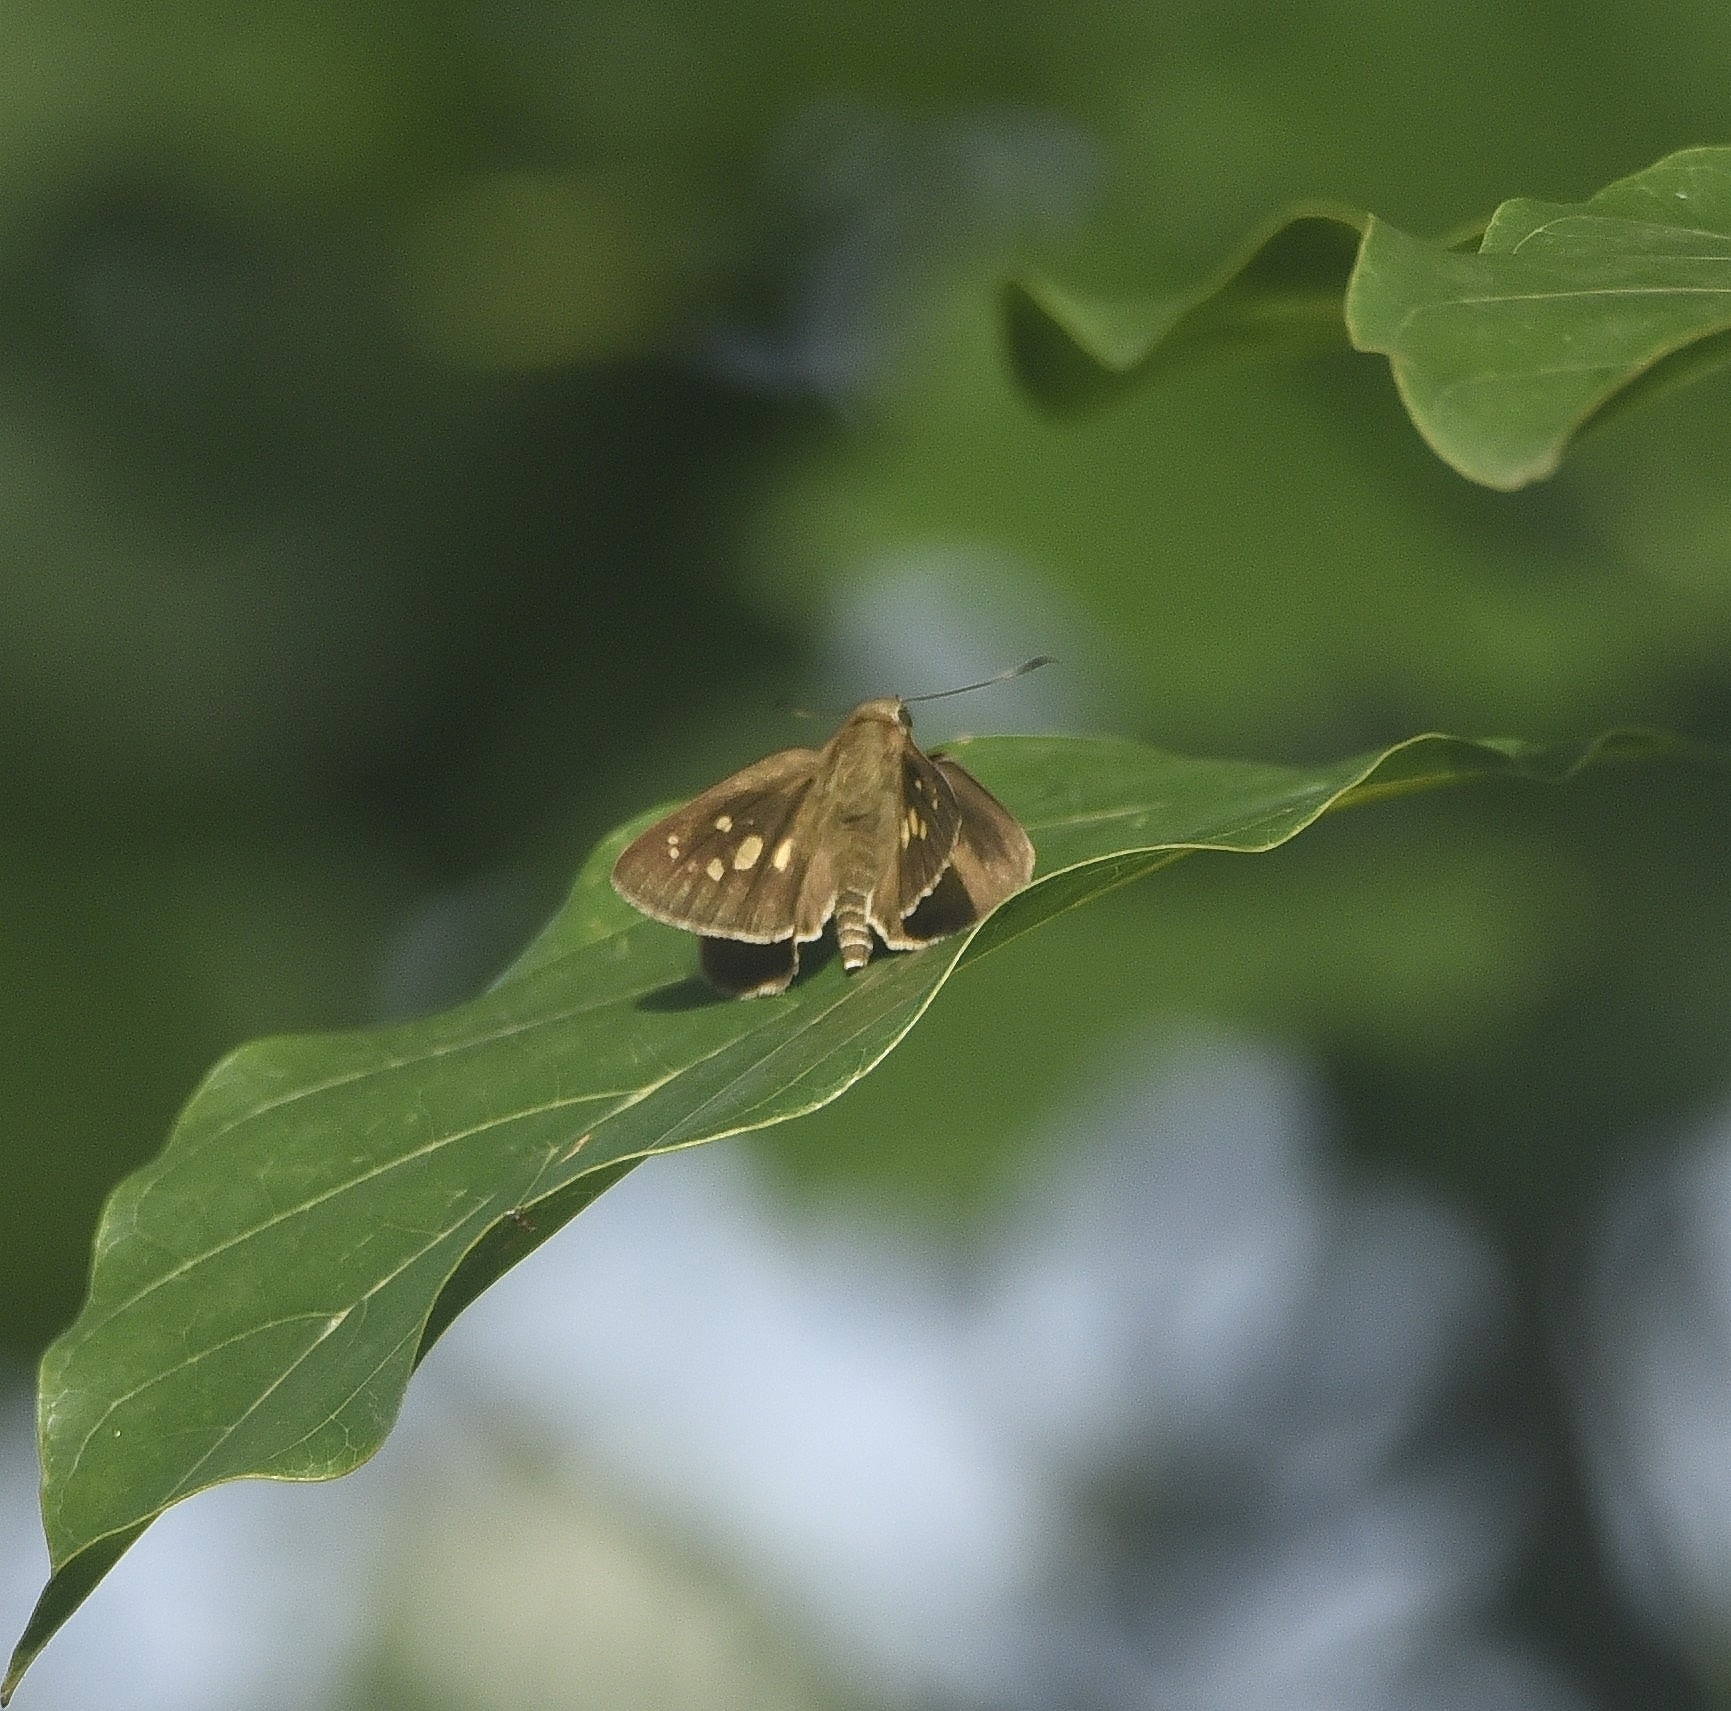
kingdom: Animalia
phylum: Arthropoda
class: Insecta
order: Lepidoptera
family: Hesperiidae
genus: Suastus
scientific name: Suastus gremius
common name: Indian palm bob
